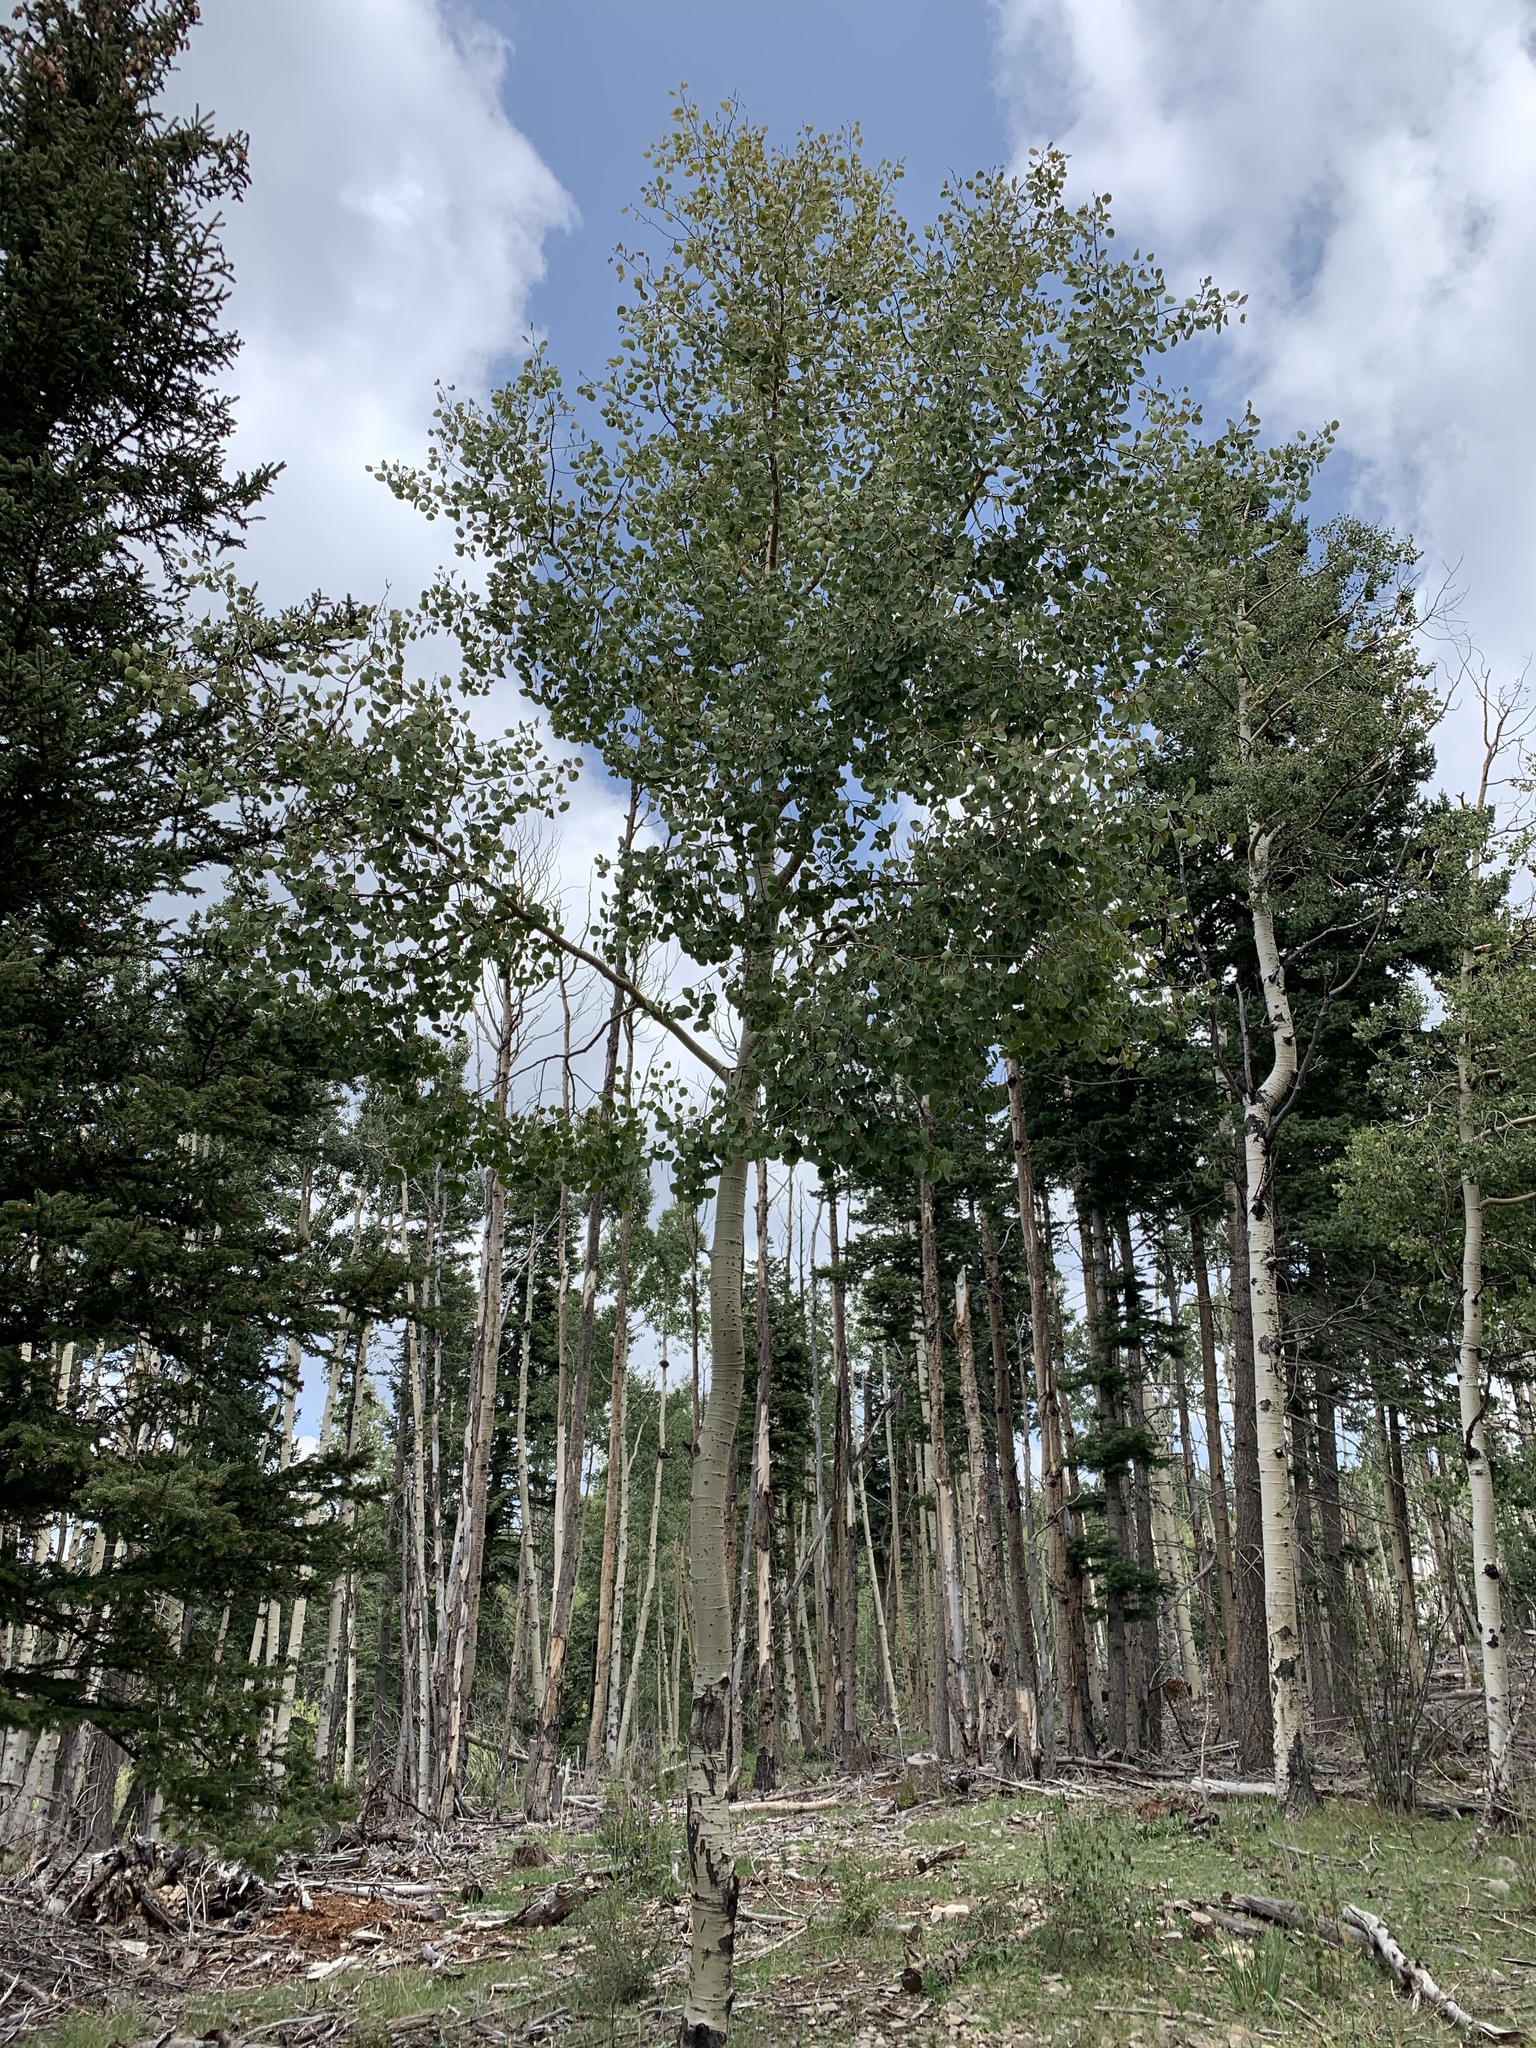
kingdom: Plantae
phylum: Tracheophyta
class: Magnoliopsida
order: Malpighiales
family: Salicaceae
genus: Populus
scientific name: Populus tremuloides
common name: Quaking aspen
